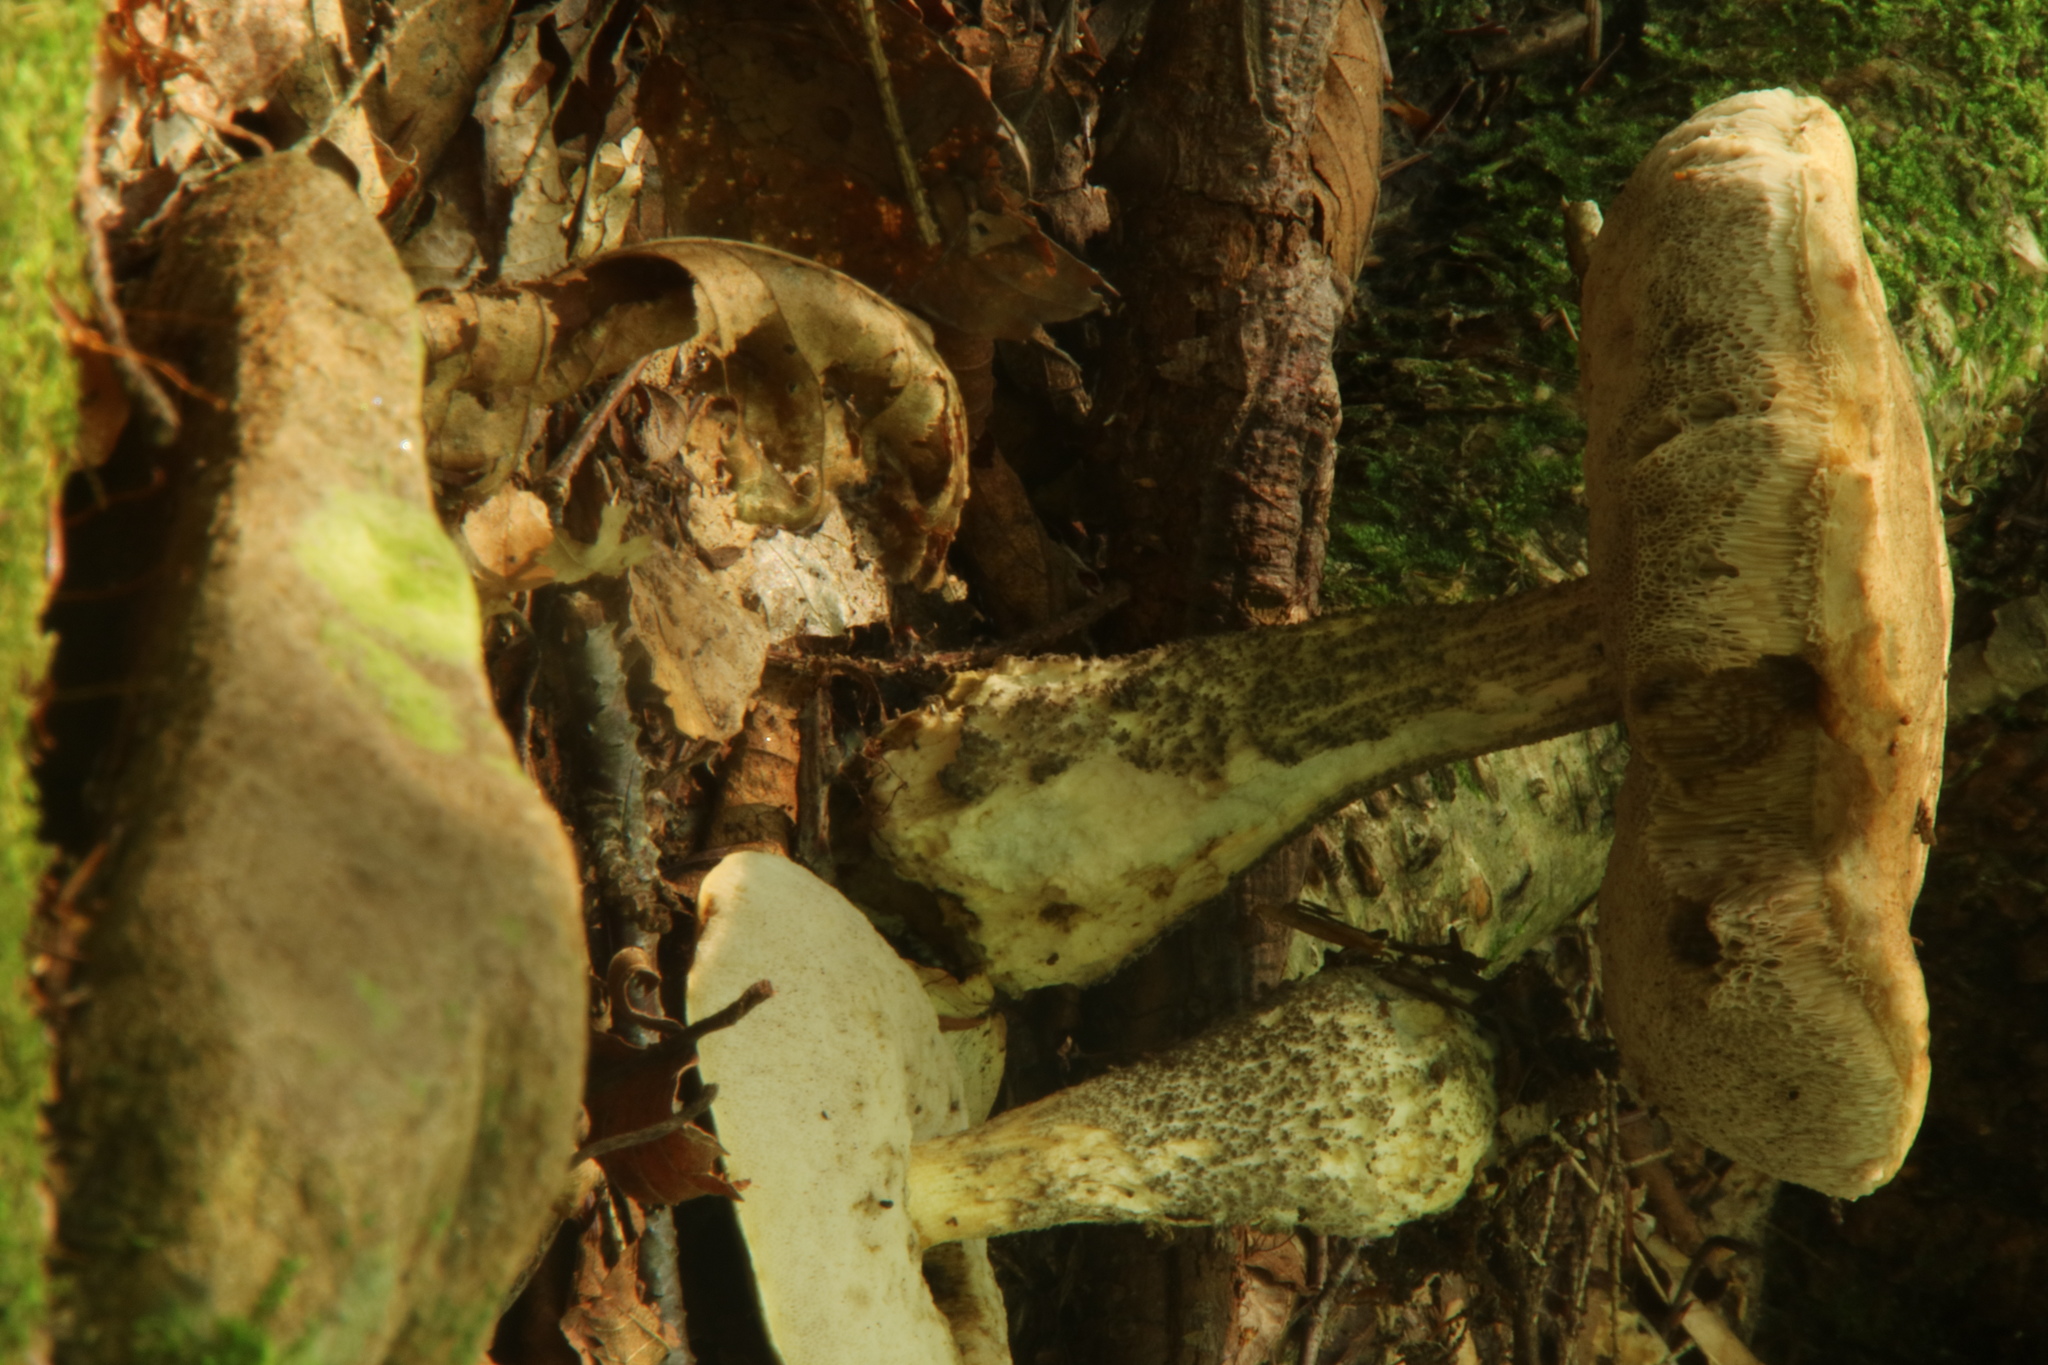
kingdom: Fungi
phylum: Basidiomycota
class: Agaricomycetes
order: Boletales
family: Boletaceae
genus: Leccinum
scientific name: Leccinum scabrum
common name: Blushing bolete
